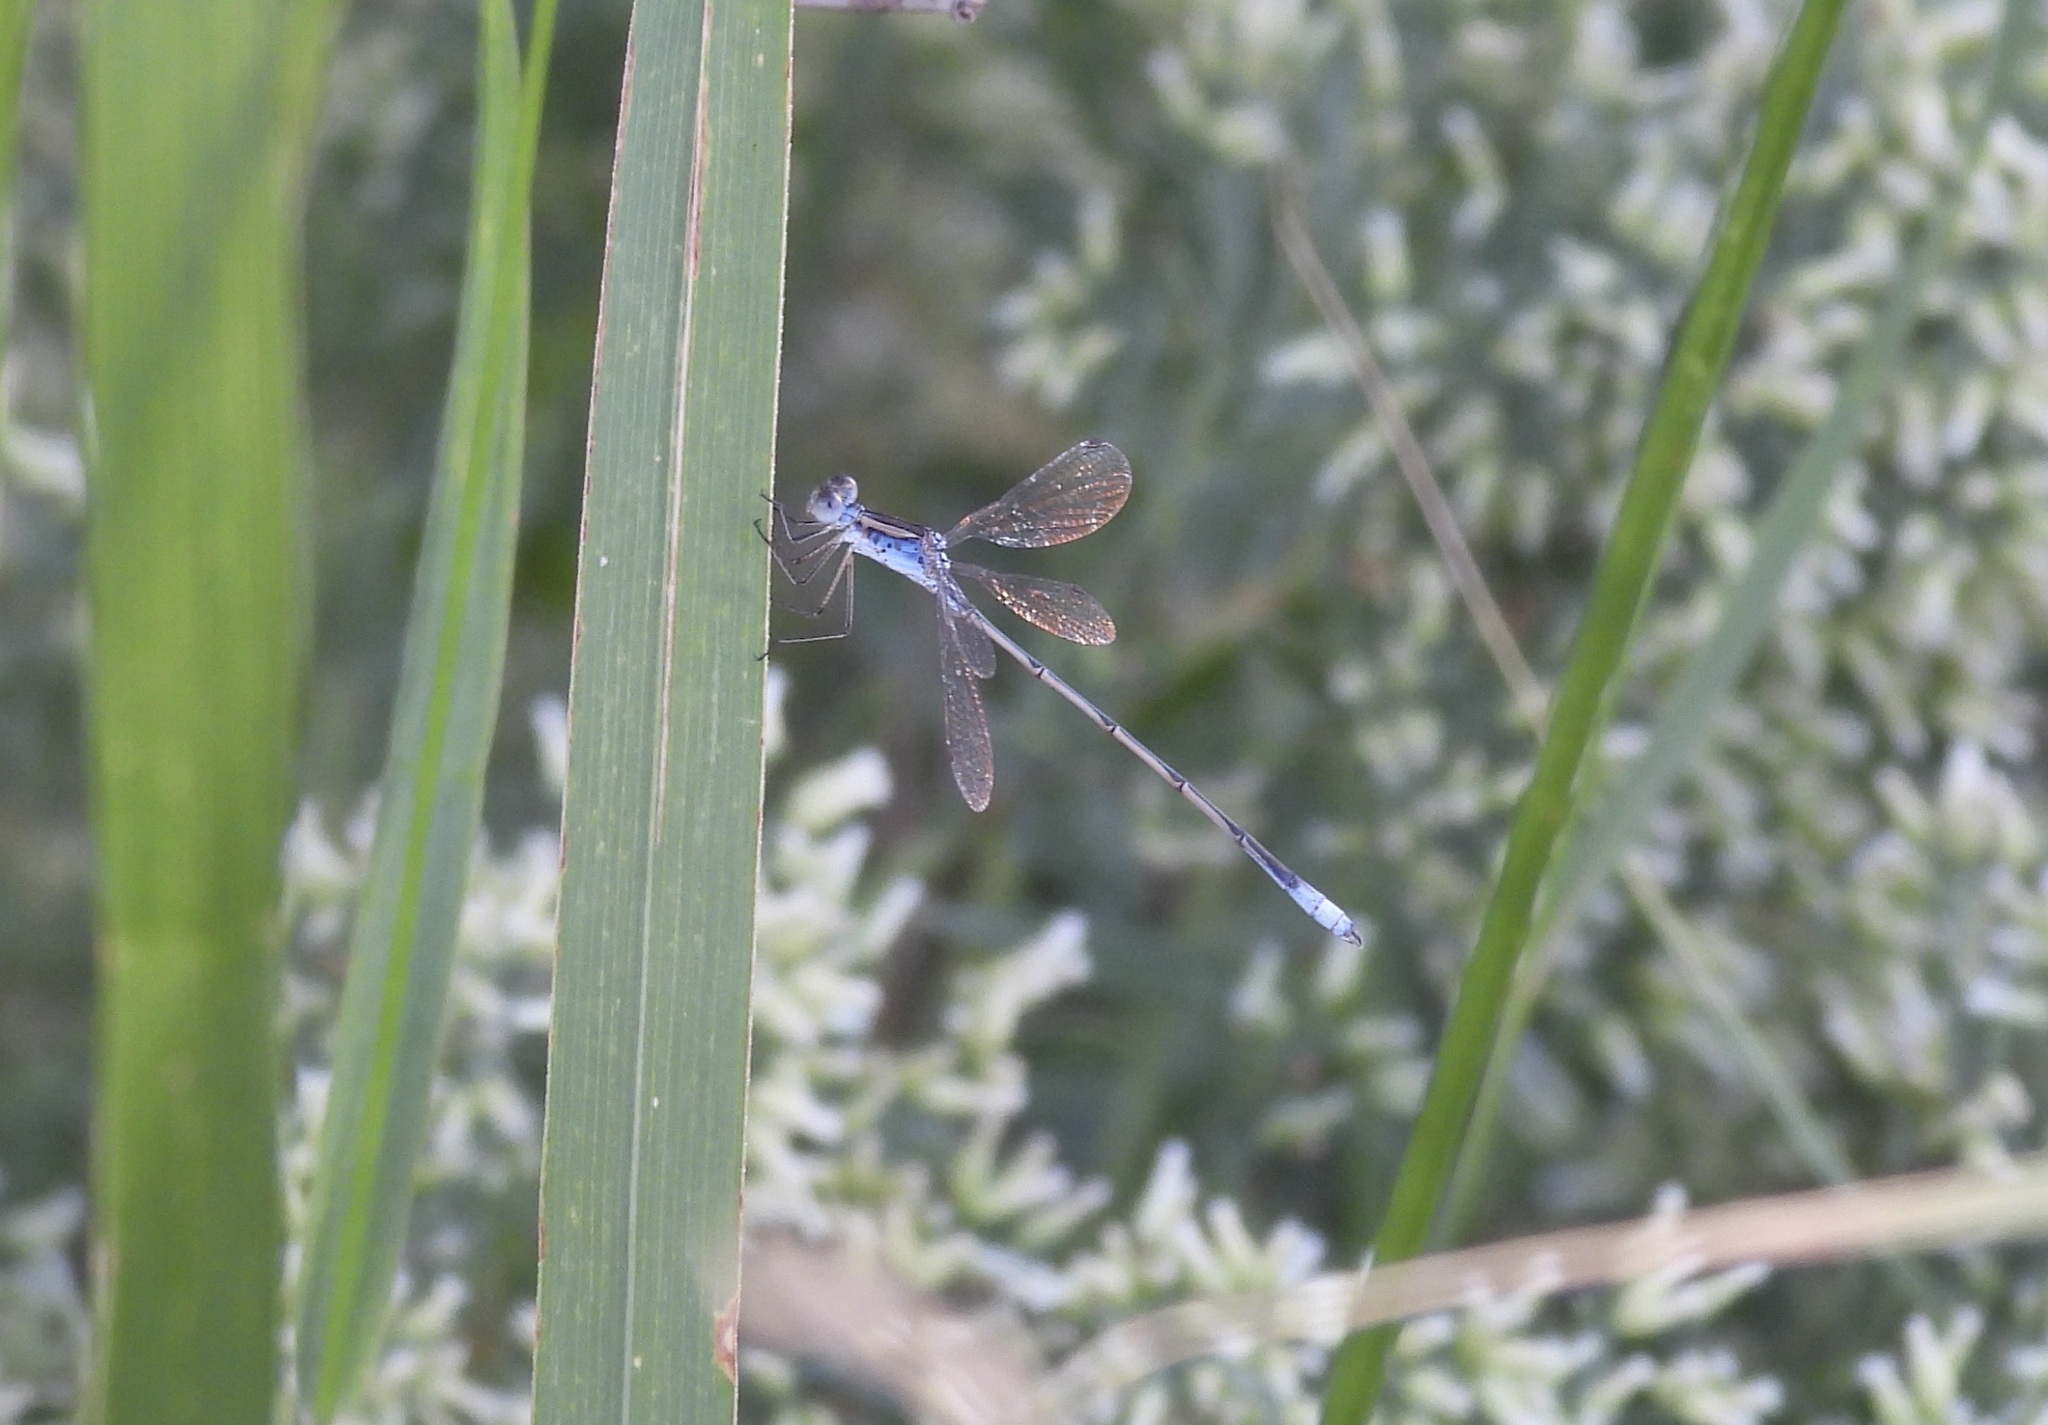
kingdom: Animalia
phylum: Arthropoda
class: Insecta
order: Odonata
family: Lestidae
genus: Lestes
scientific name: Lestes alacer
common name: Plateau spreadwing
